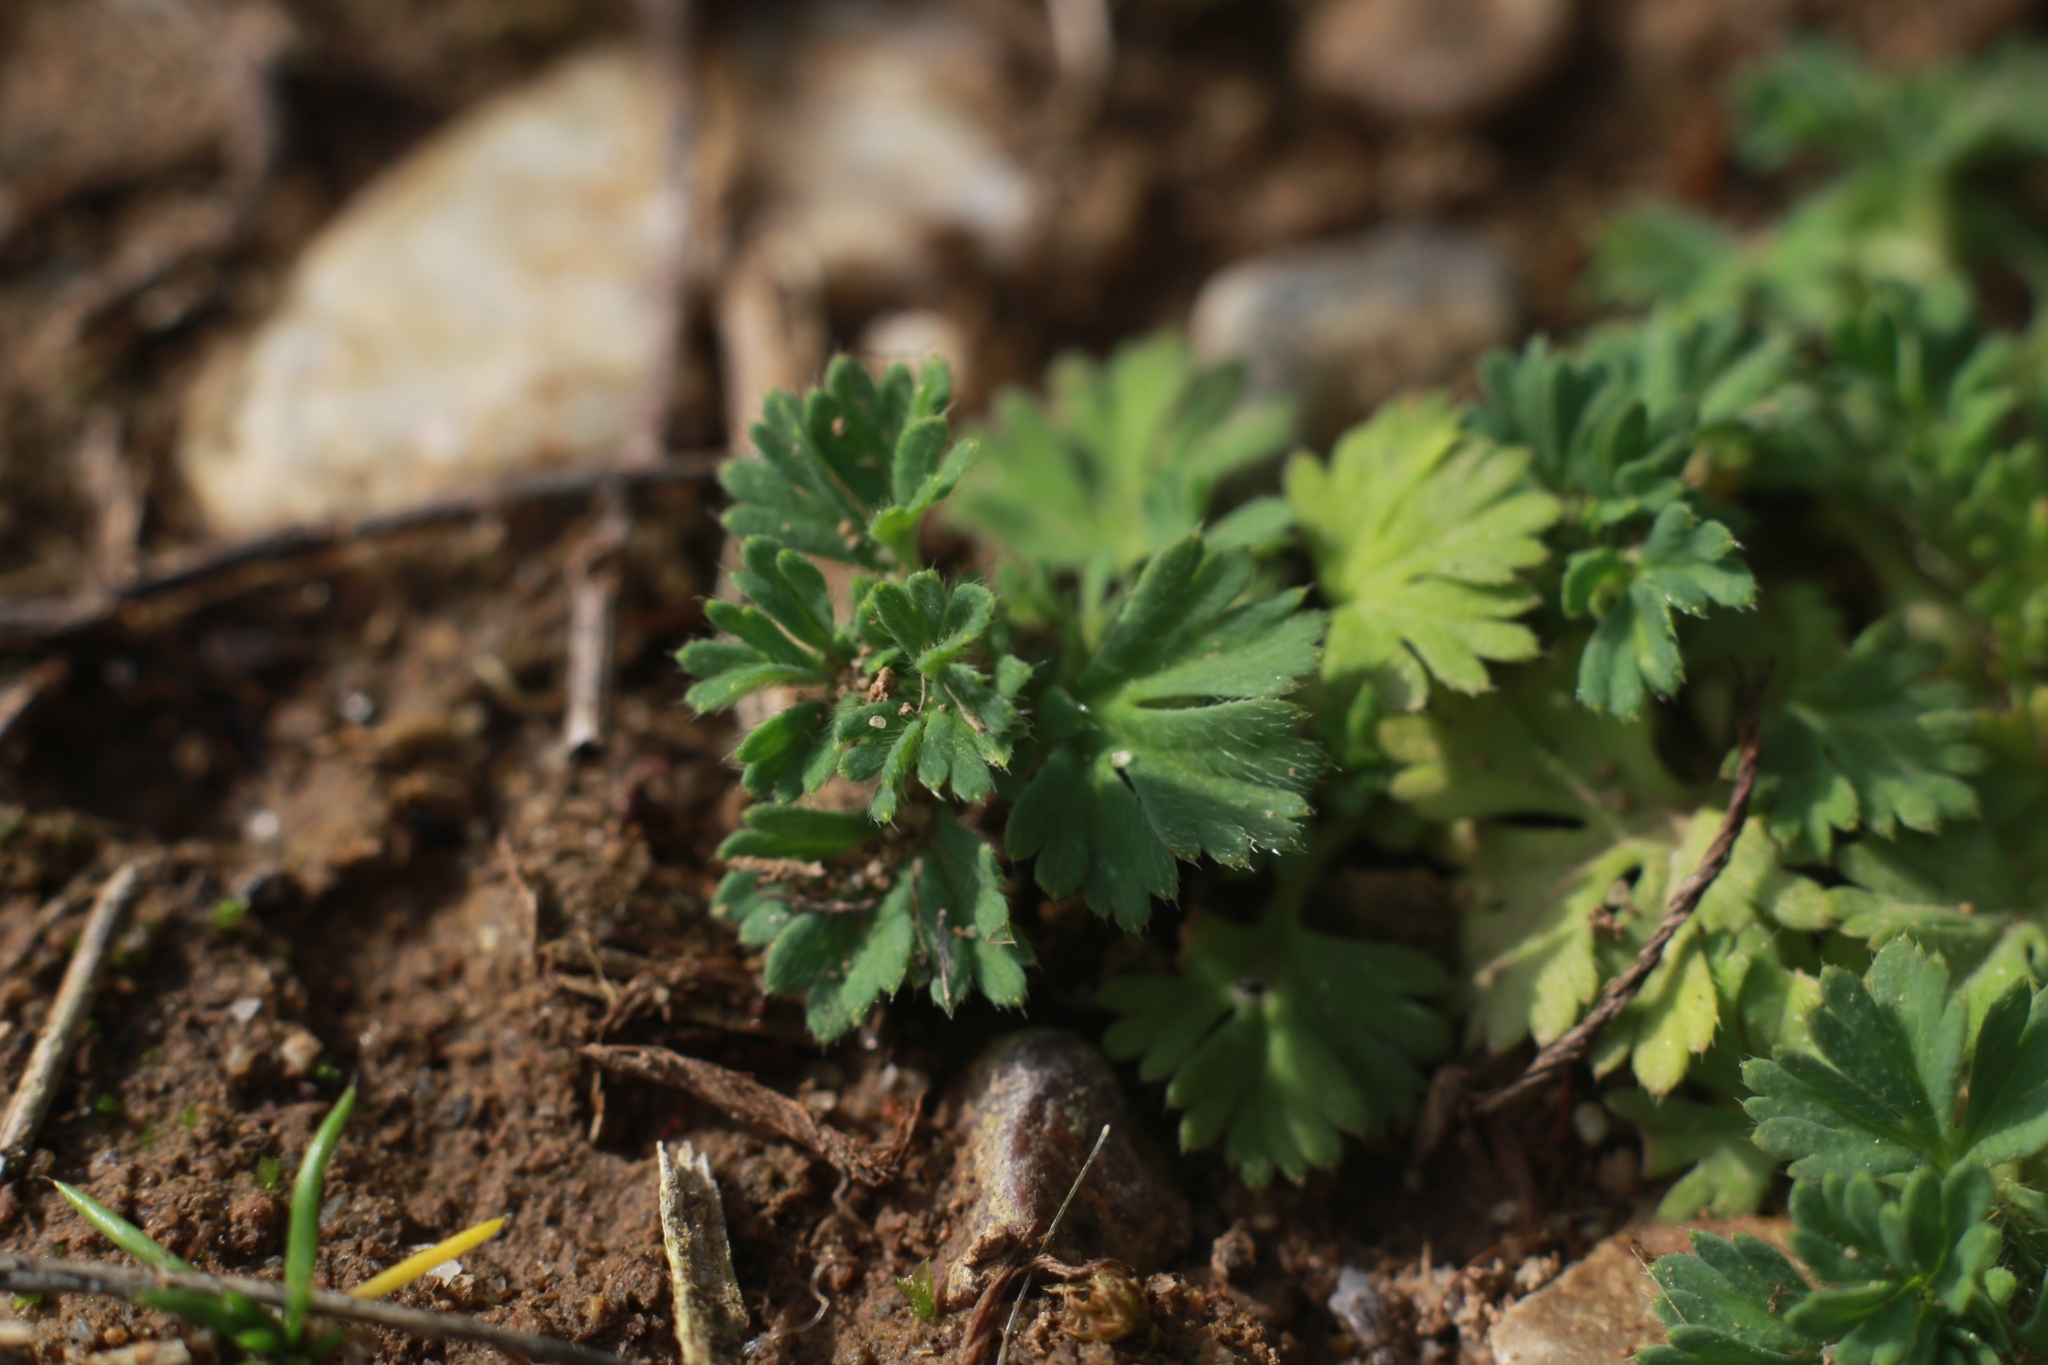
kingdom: Plantae
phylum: Tracheophyta
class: Magnoliopsida
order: Rosales
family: Rosaceae
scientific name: Rosaceae
